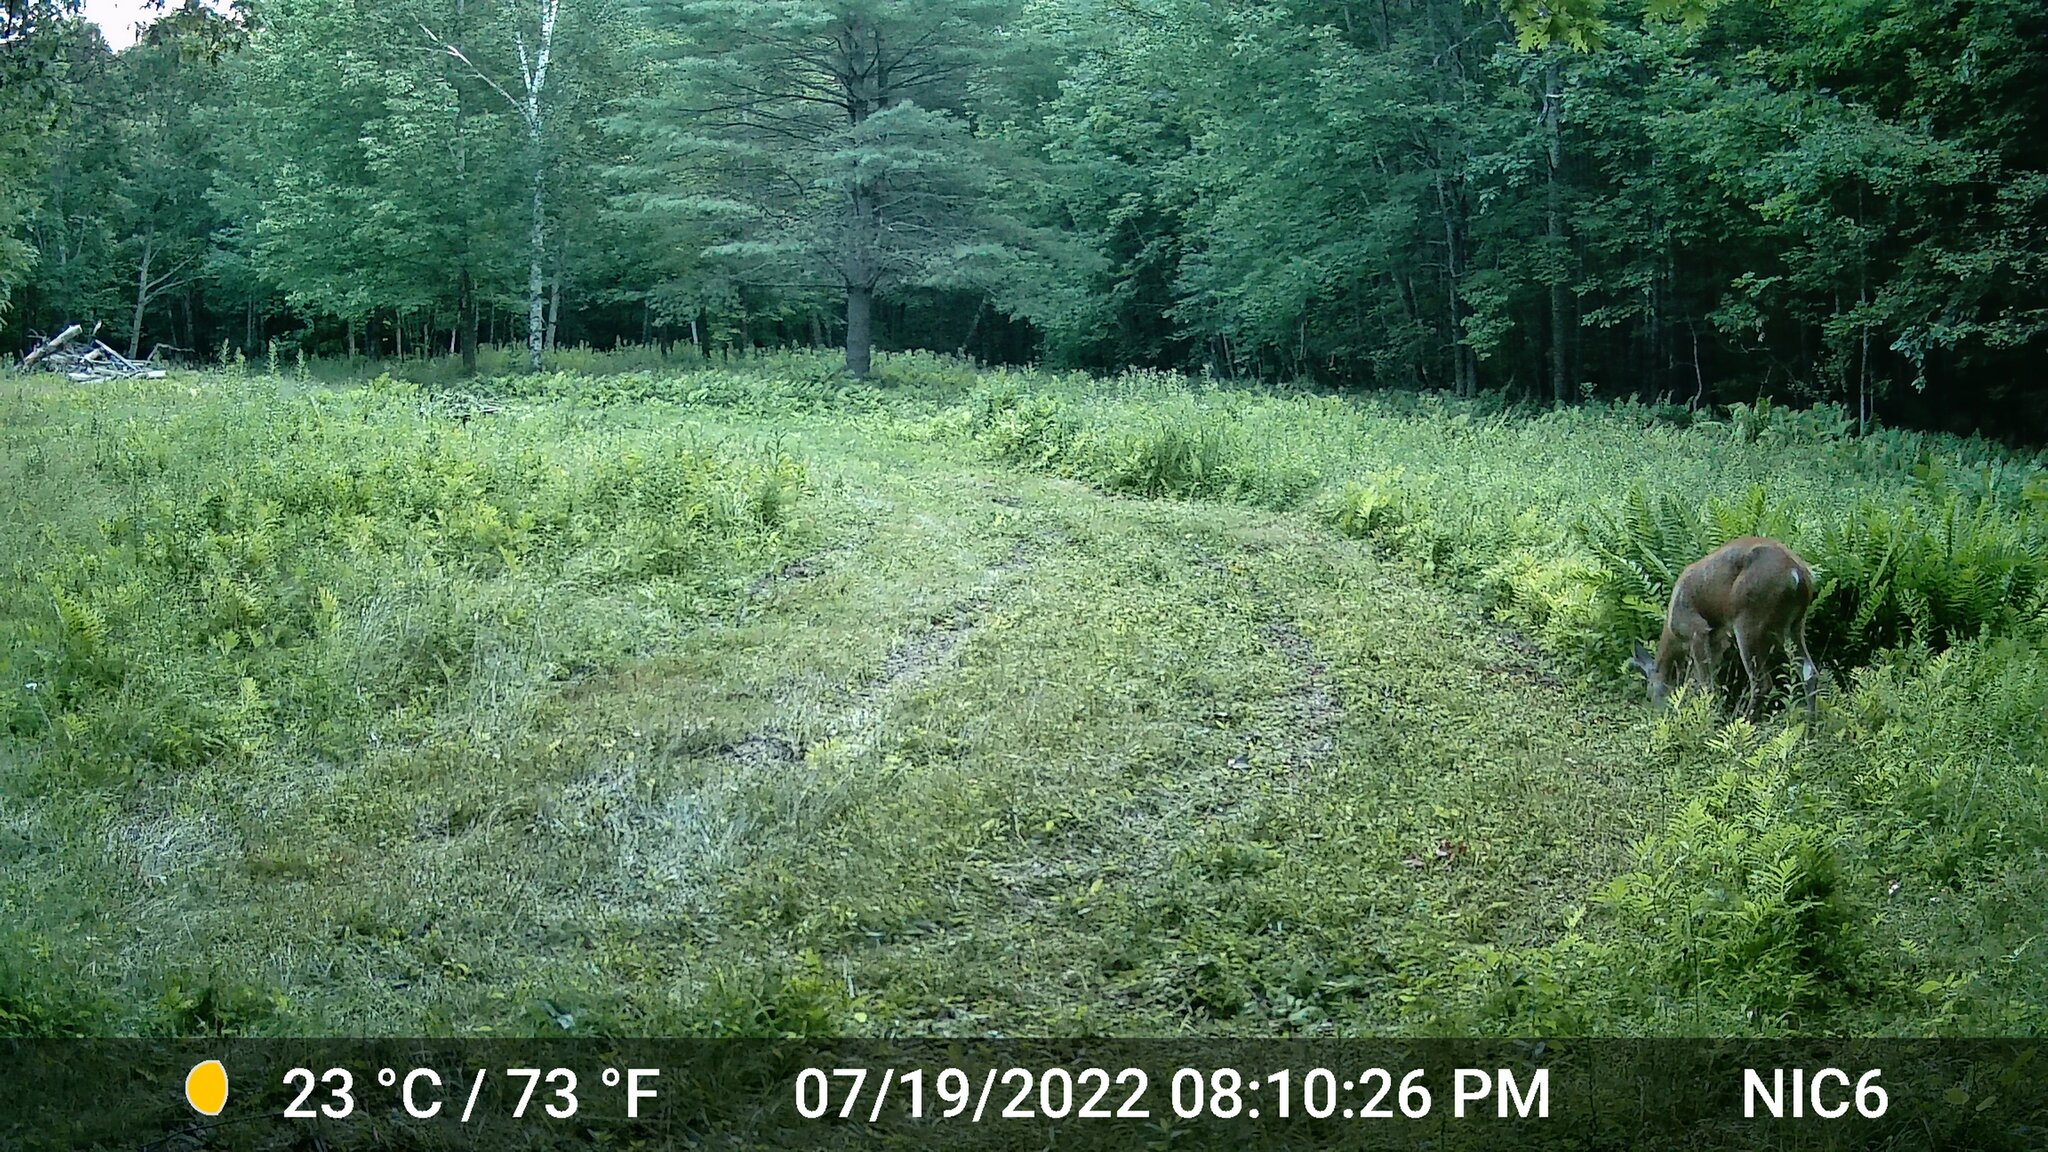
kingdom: Animalia
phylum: Chordata
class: Mammalia
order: Artiodactyla
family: Cervidae
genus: Odocoileus
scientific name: Odocoileus virginianus
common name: White-tailed deer
